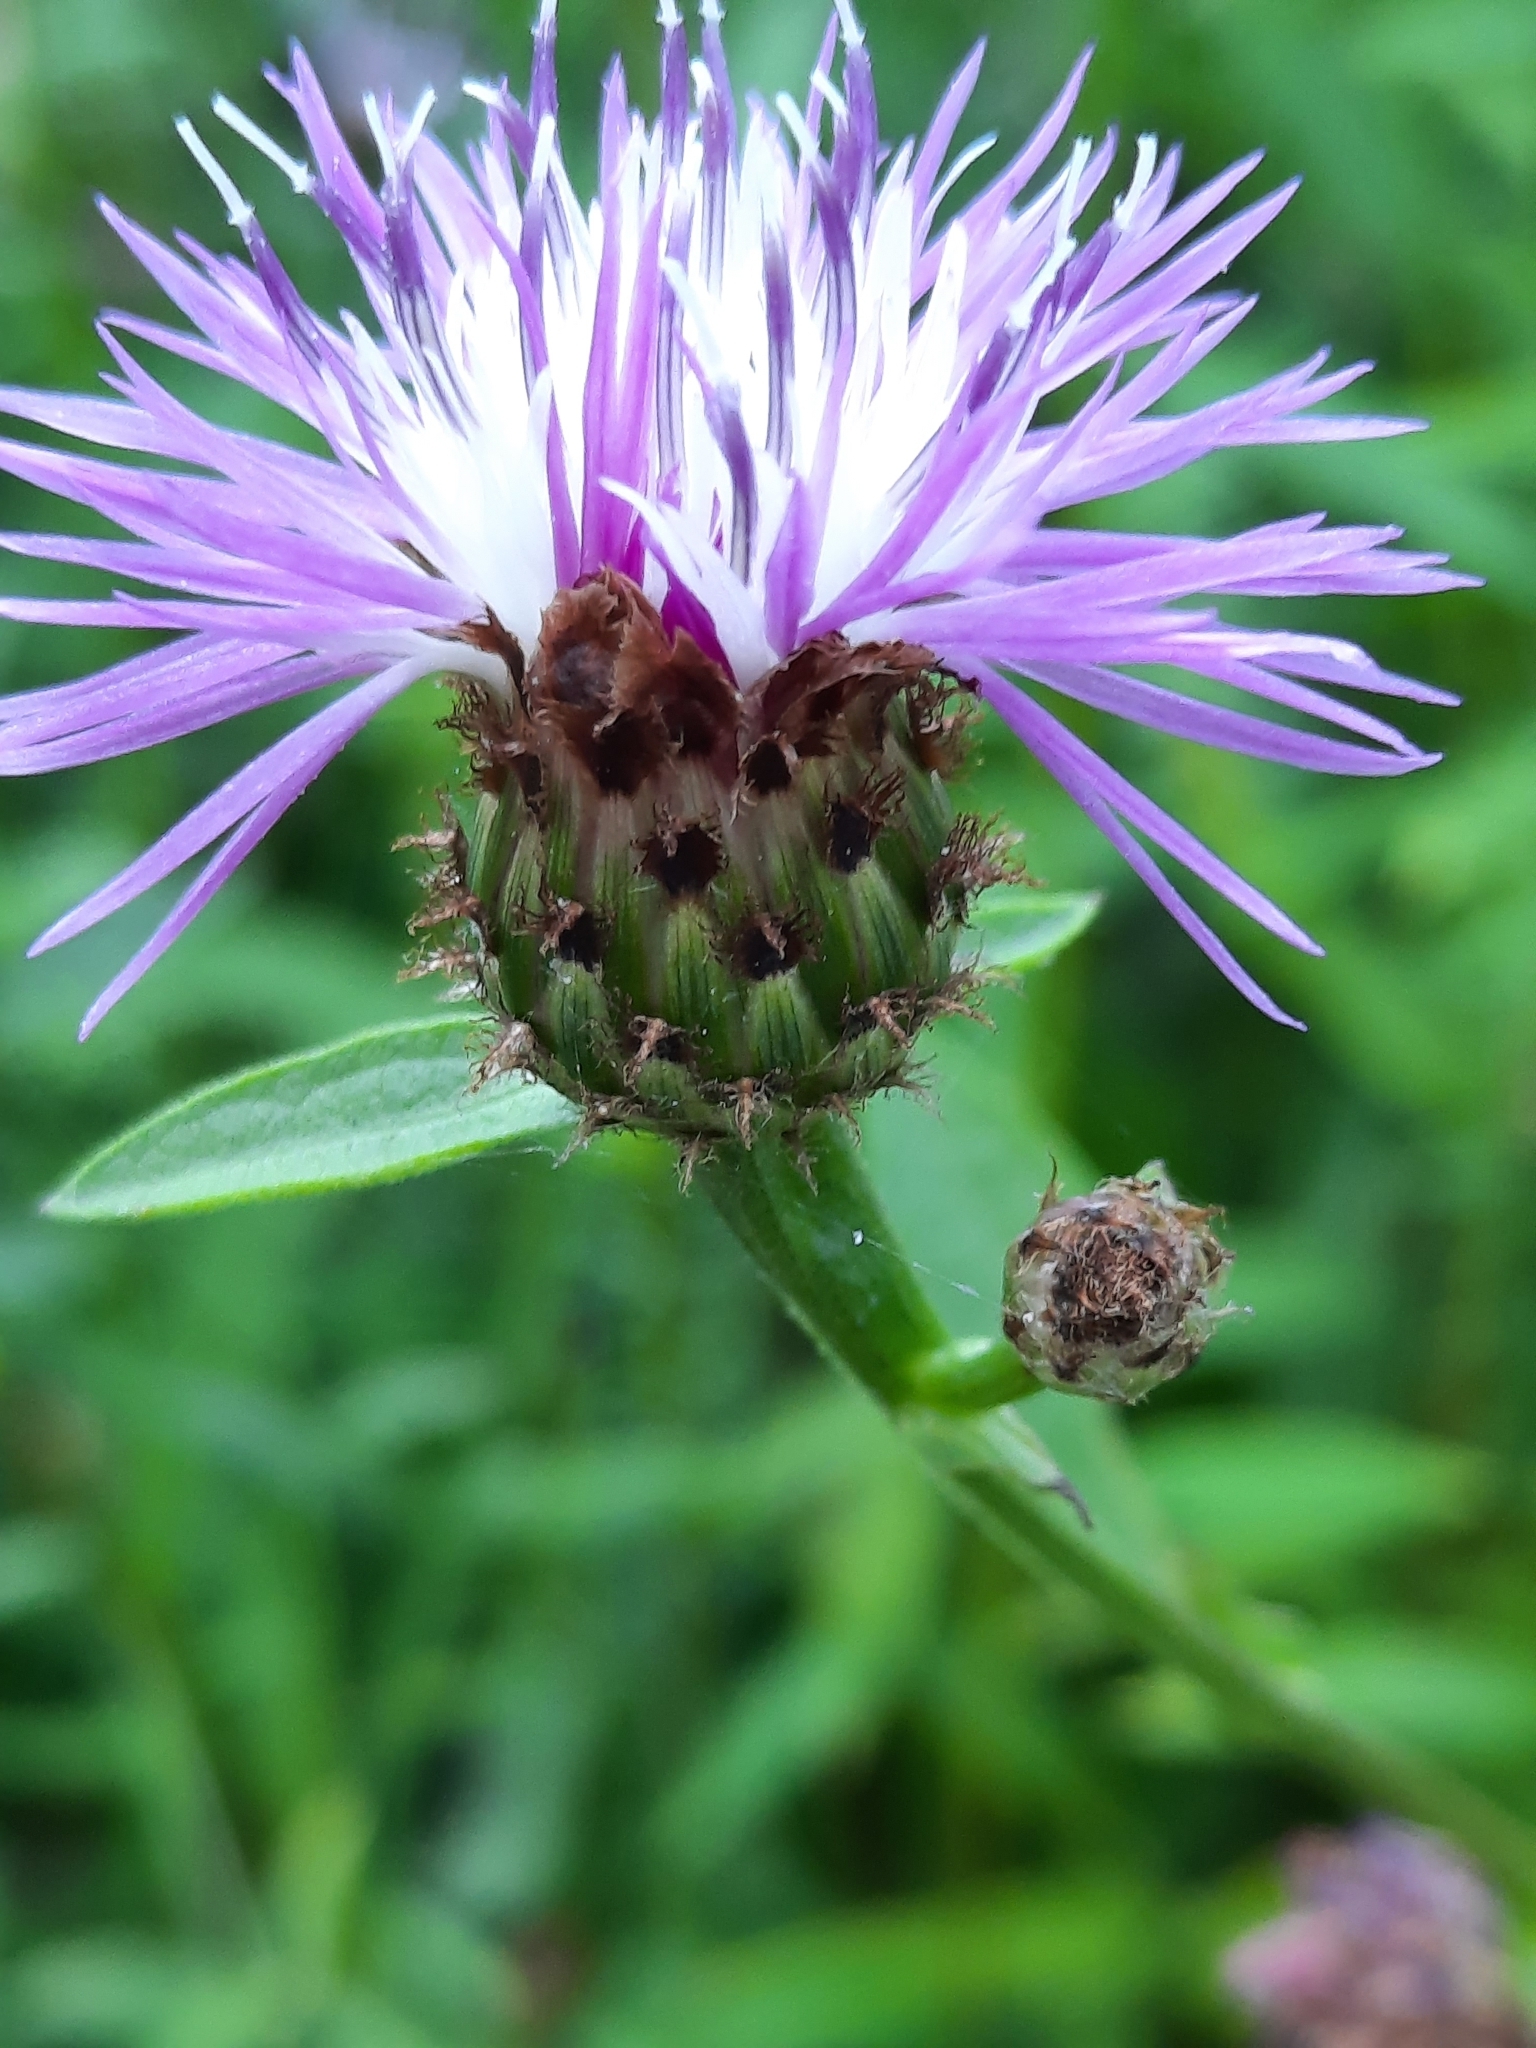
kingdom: Plantae
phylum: Tracheophyta
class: Magnoliopsida
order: Asterales
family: Asteraceae
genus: Centaurea
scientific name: Centaurea nigrescens
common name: Tyrol knapweed
